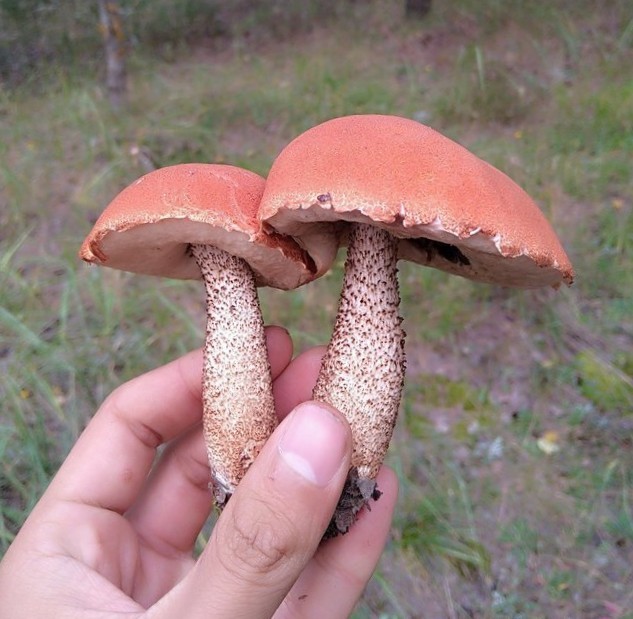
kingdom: Fungi
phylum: Basidiomycota
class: Agaricomycetes
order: Boletales
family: Boletaceae
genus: Leccinum
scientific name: Leccinum aurantiacum
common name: Orange bolete
